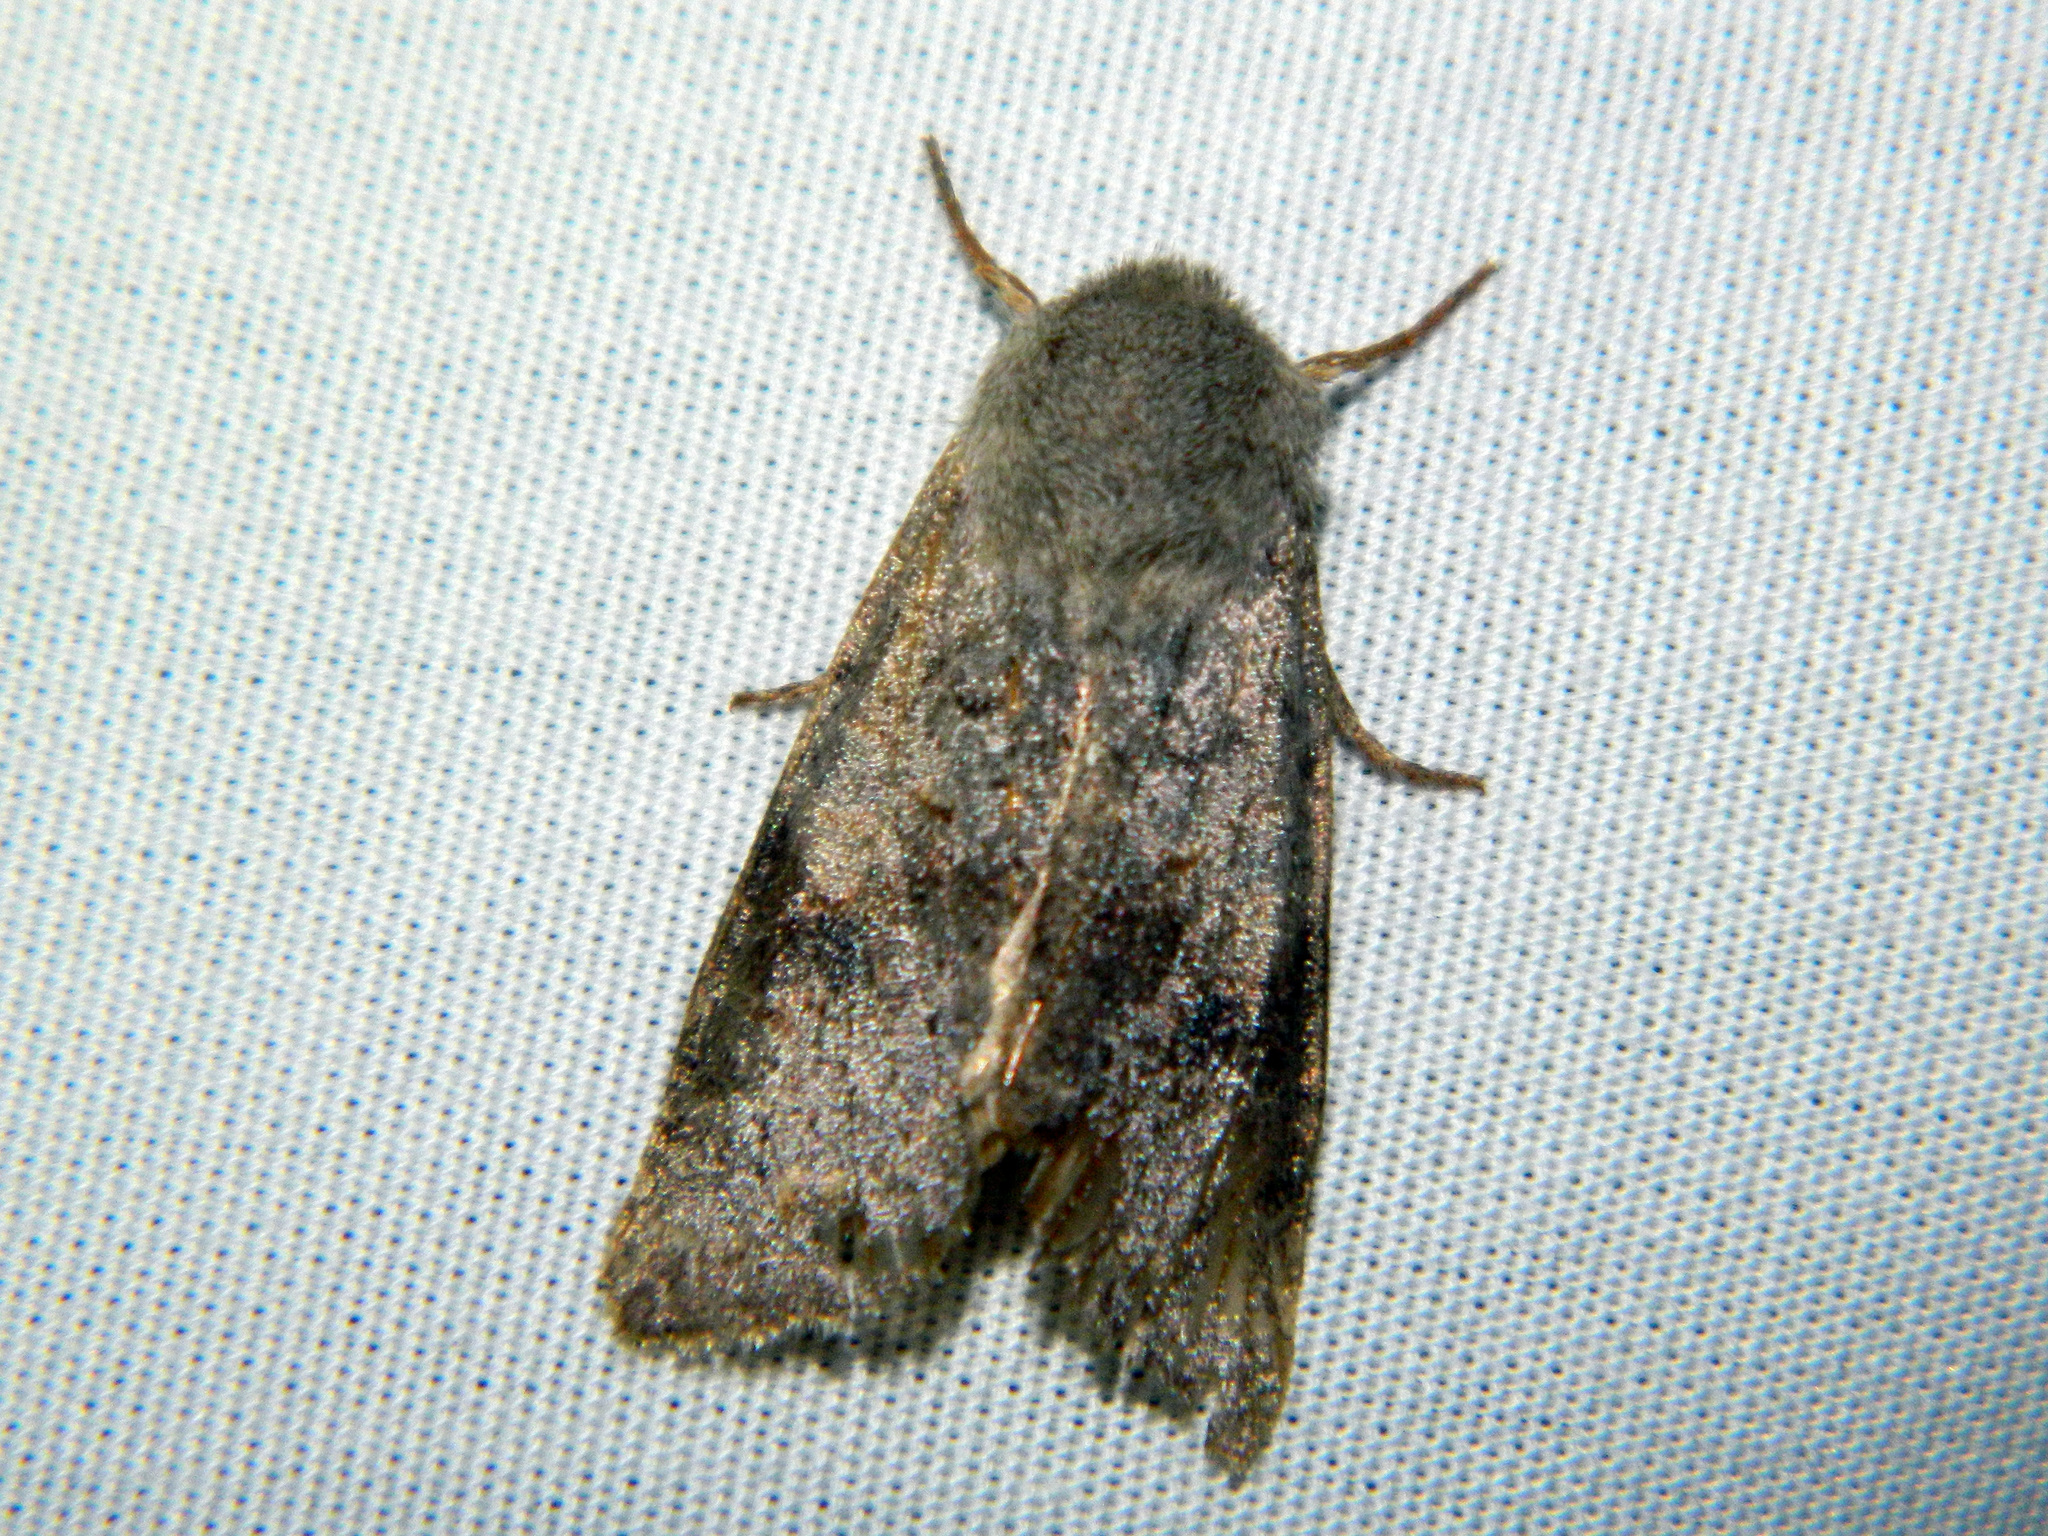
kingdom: Animalia
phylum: Arthropoda
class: Insecta
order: Lepidoptera
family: Noctuidae
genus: Orthosia
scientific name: Orthosia hibisci
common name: Green fruitworm
